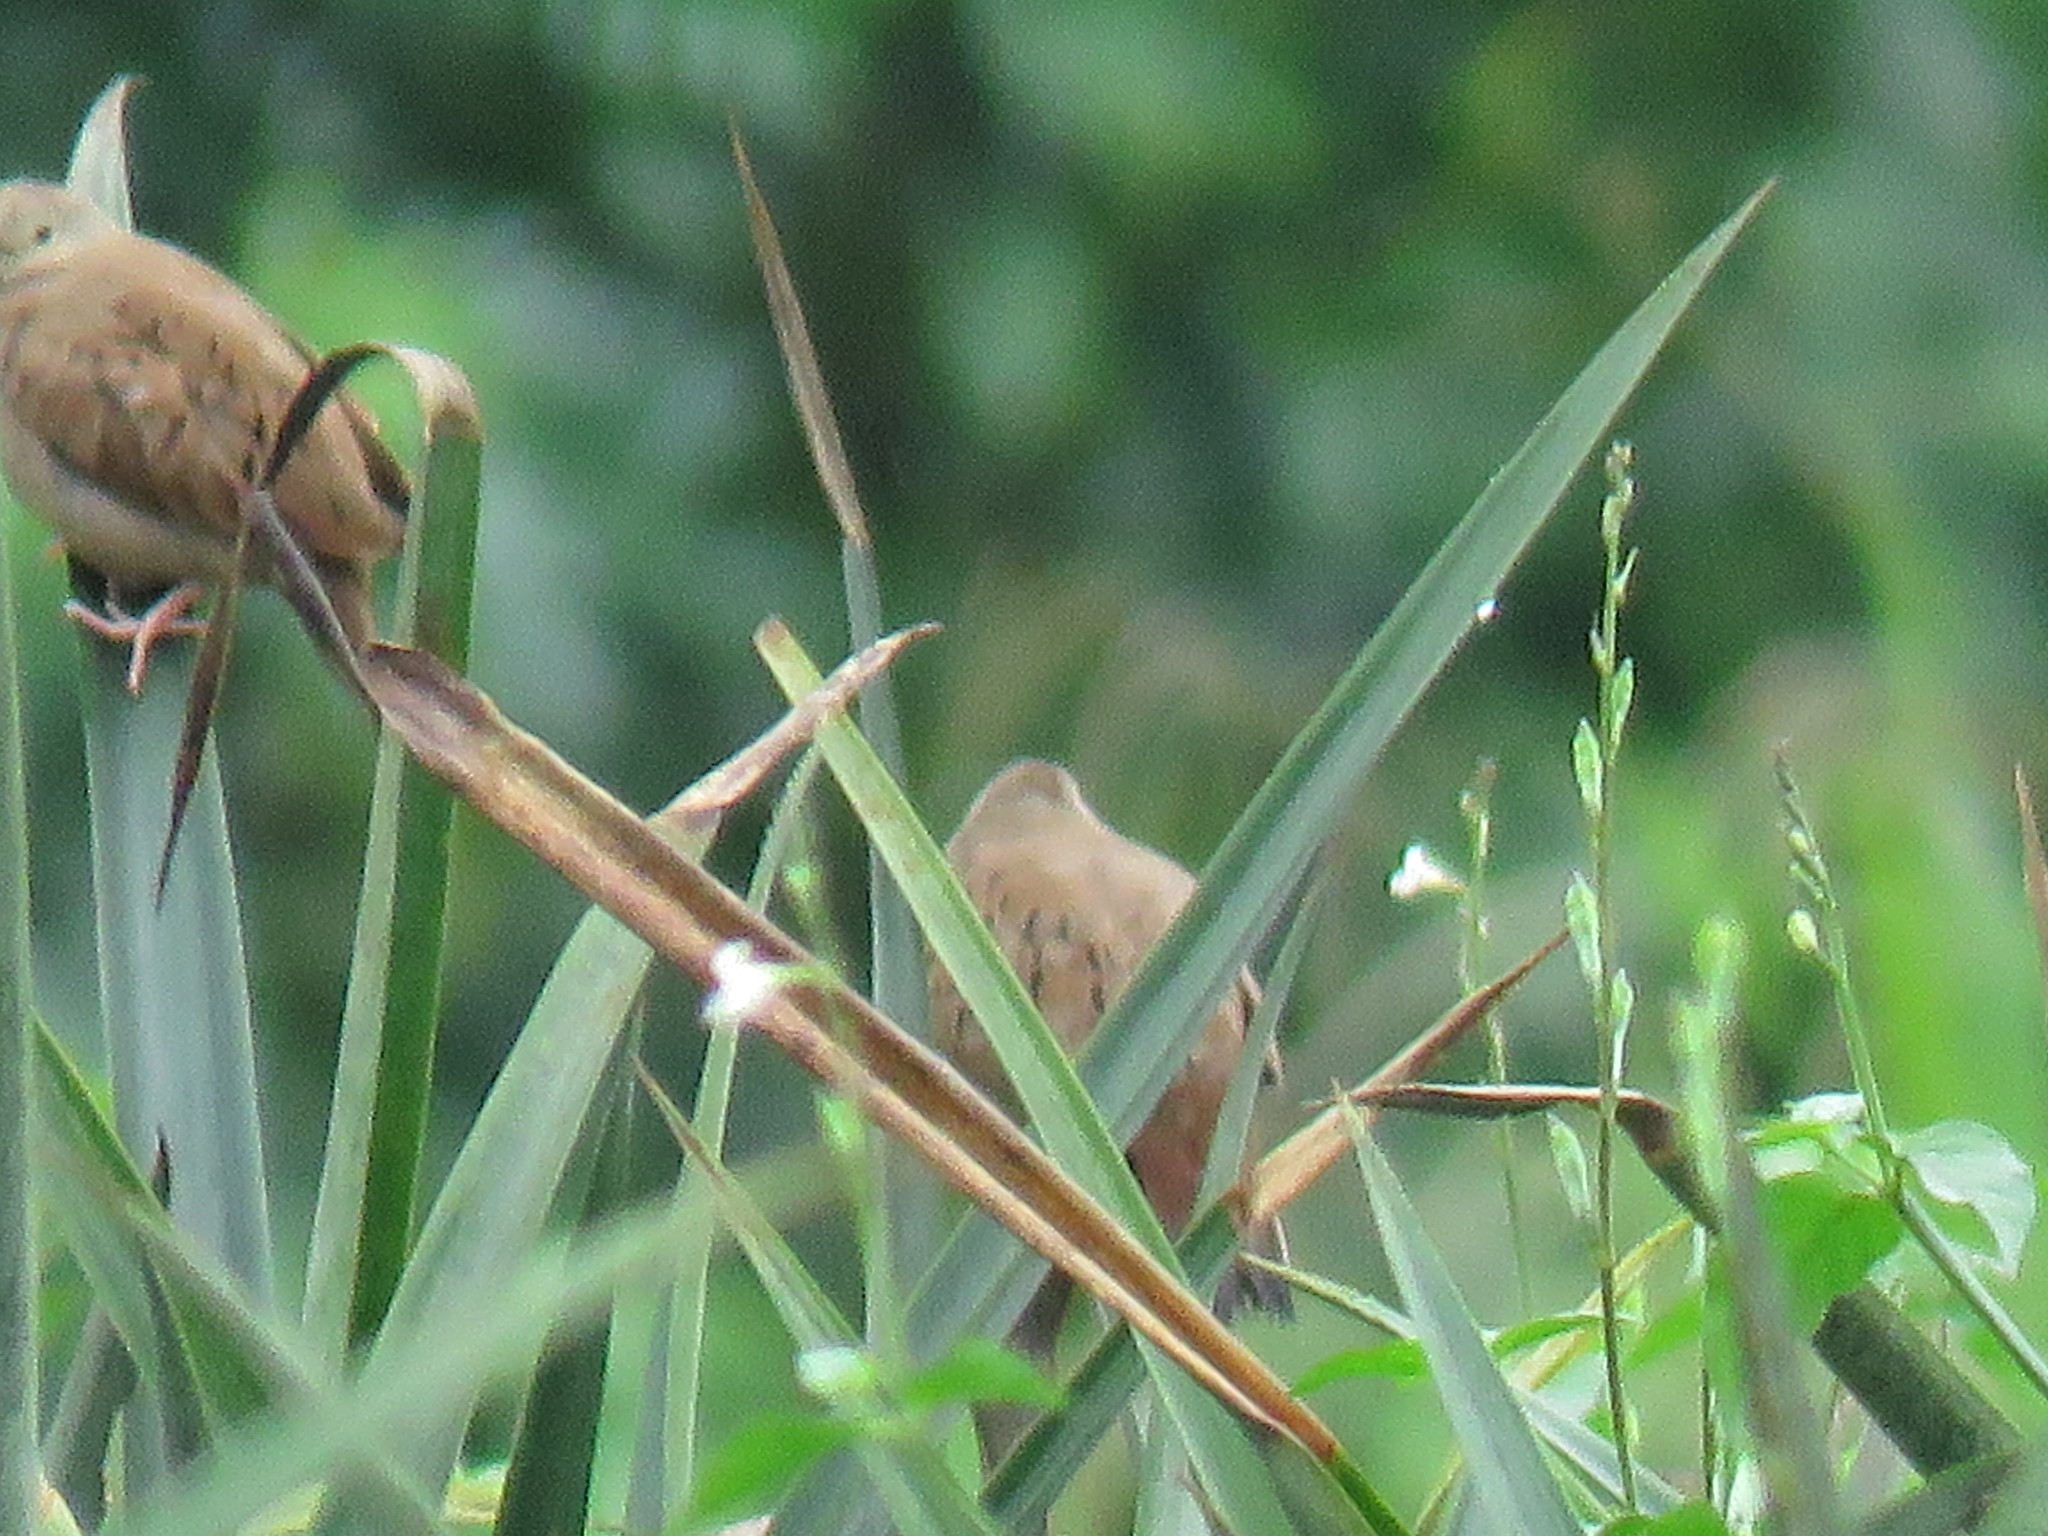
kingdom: Animalia
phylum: Chordata
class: Aves
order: Columbiformes
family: Columbidae
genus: Columbina
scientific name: Columbina talpacoti
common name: Ruddy ground dove
